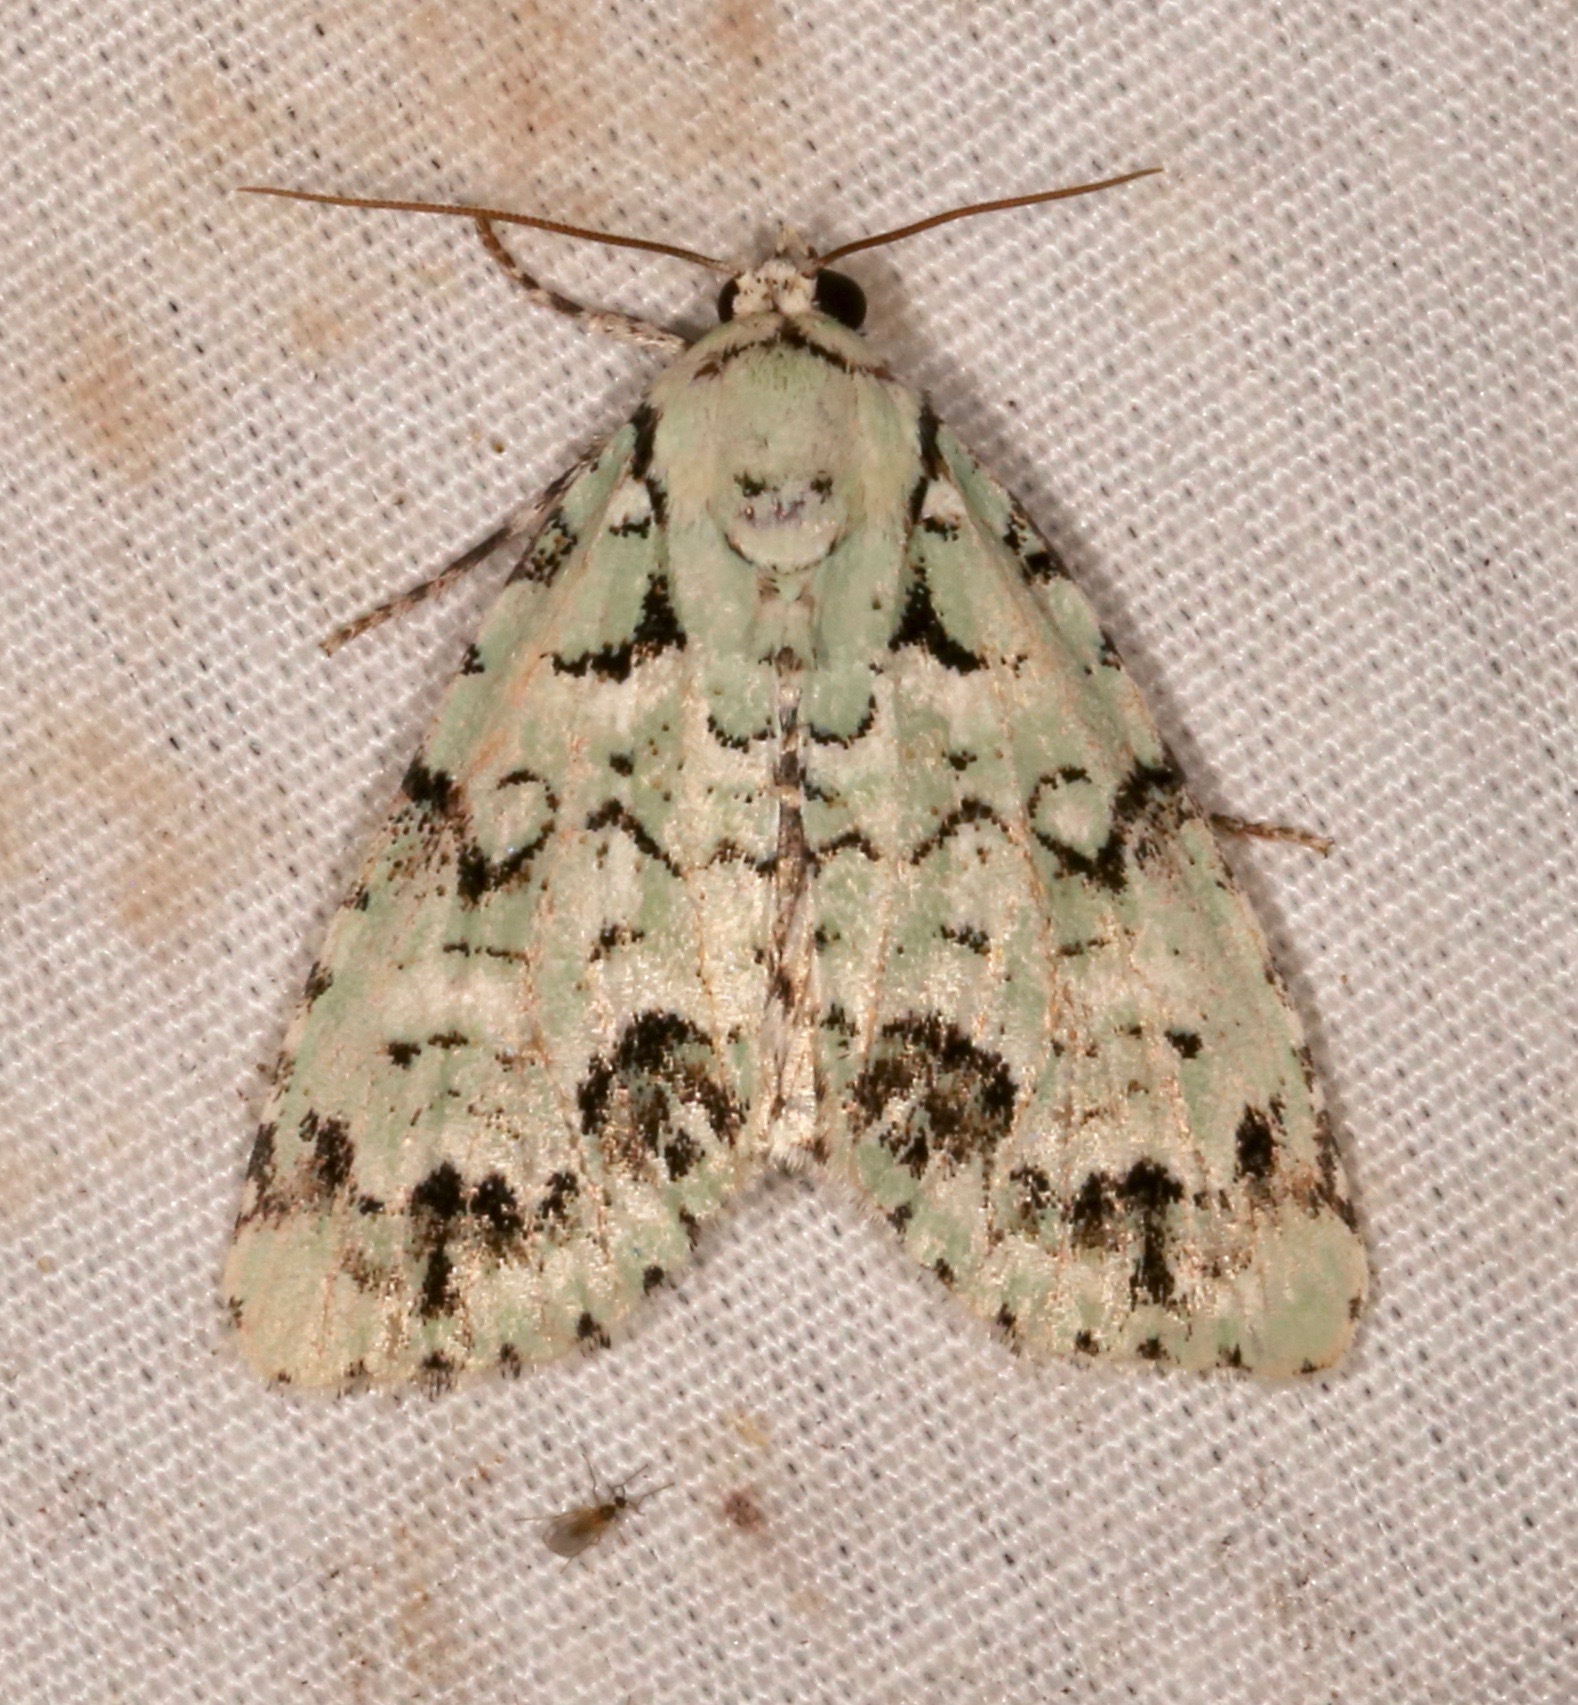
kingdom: Animalia
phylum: Arthropoda
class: Insecta
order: Lepidoptera
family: Noctuidae
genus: Chloronycta
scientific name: Chloronycta tybo
